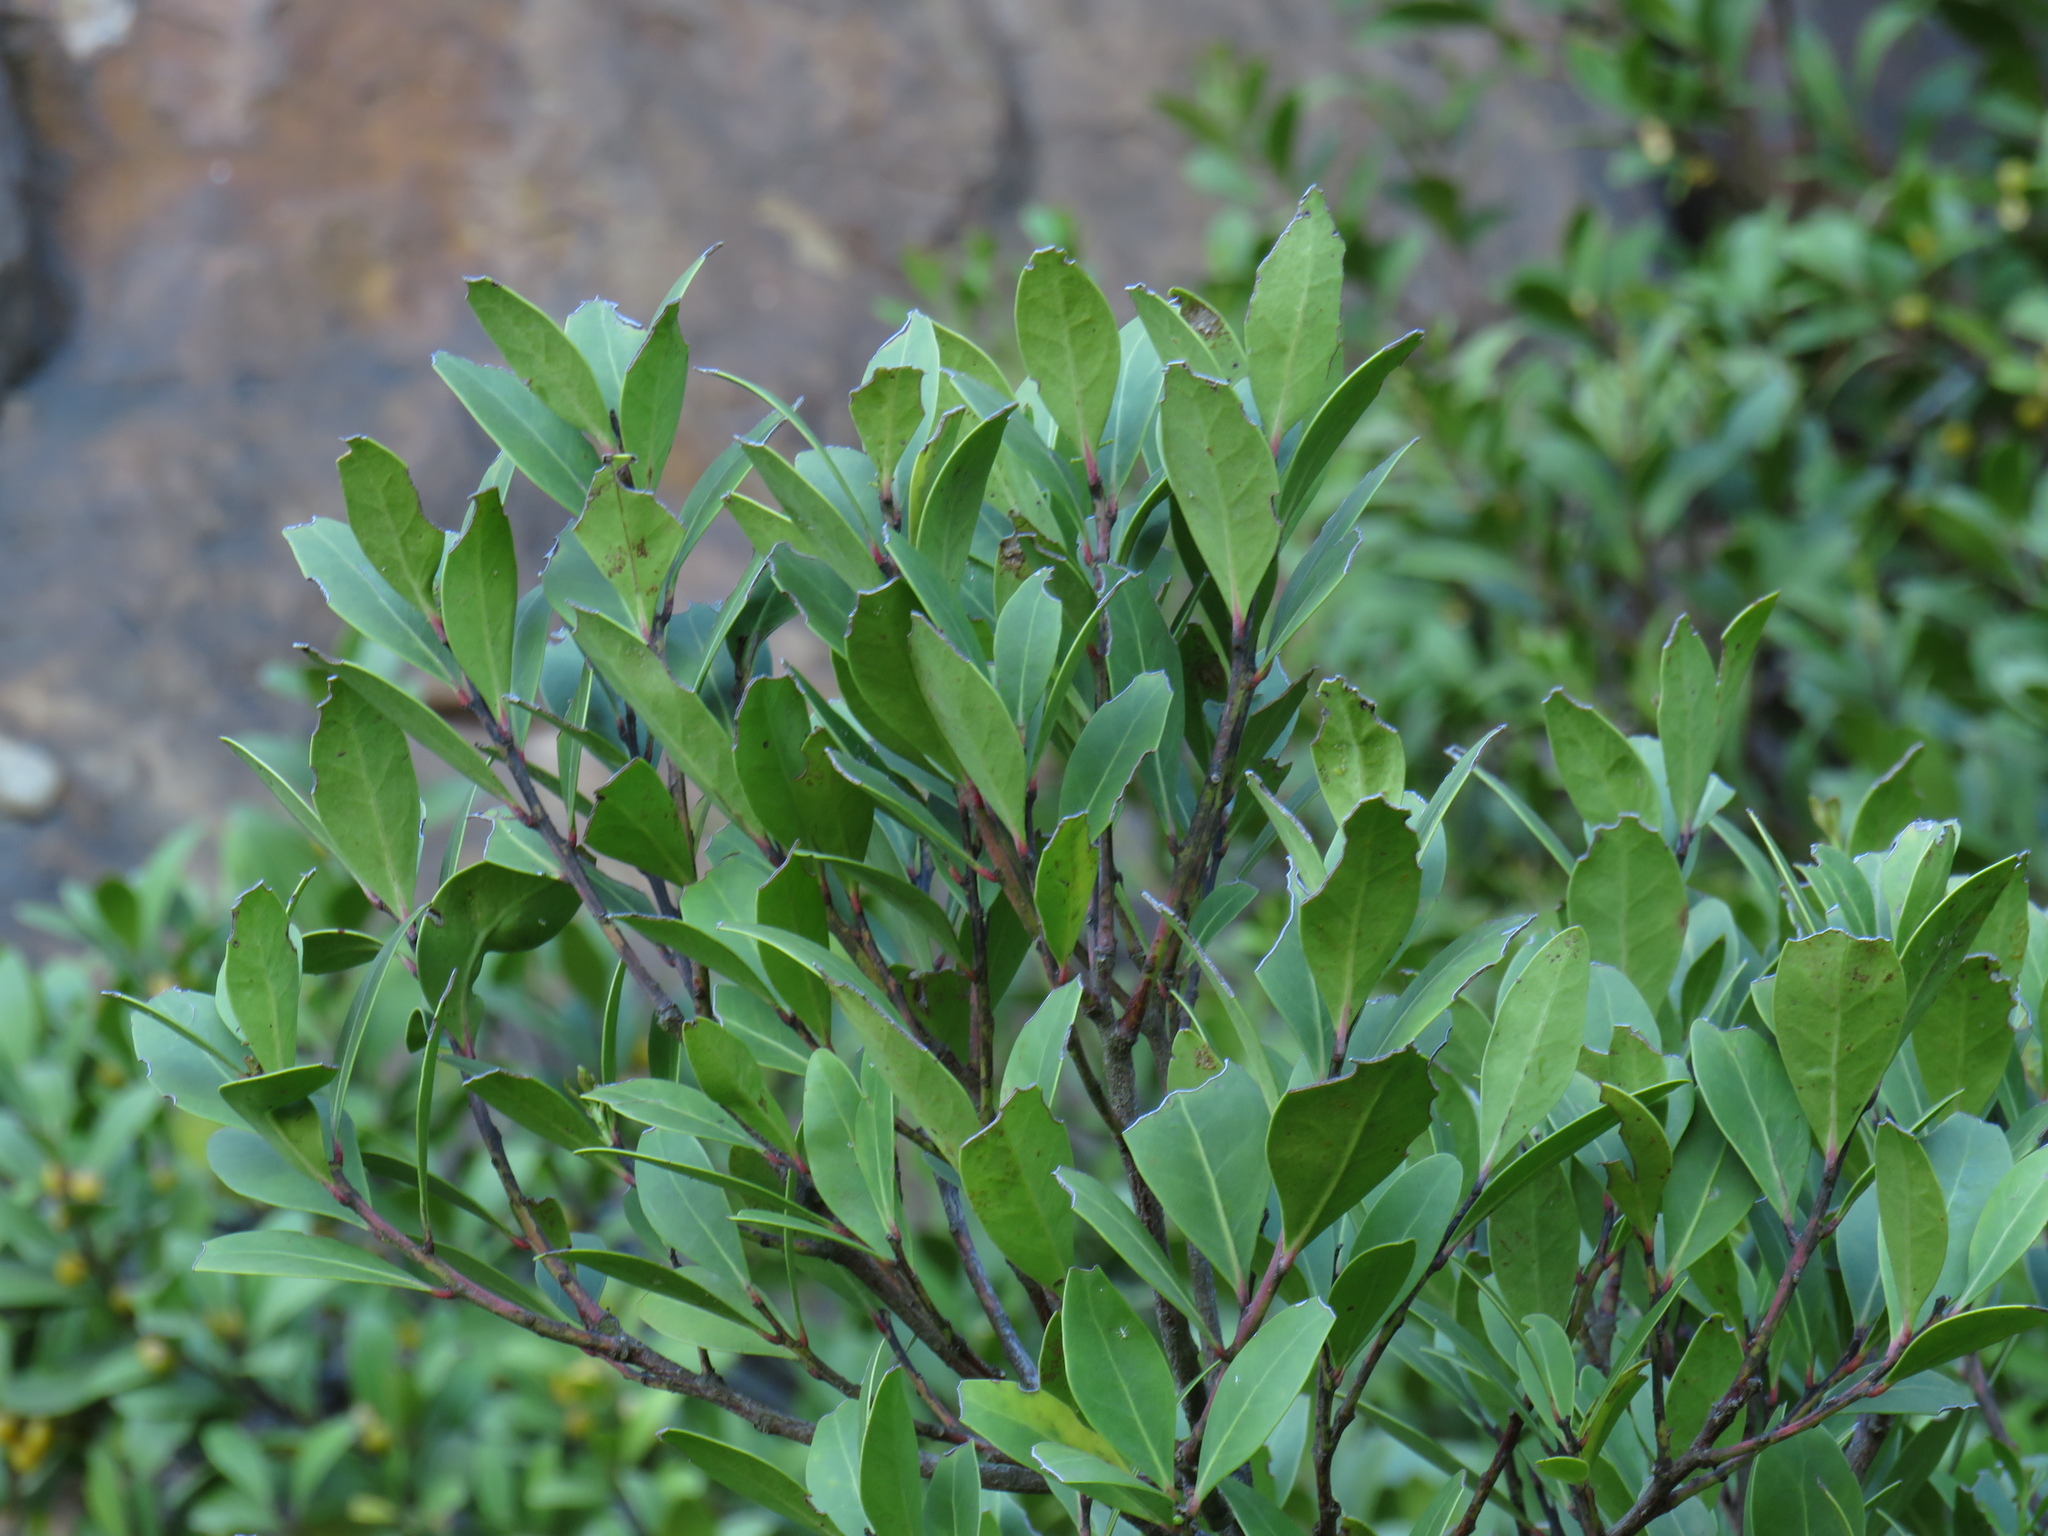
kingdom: Plantae
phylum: Tracheophyta
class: Magnoliopsida
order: Celastrales
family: Celastraceae
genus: Gymnosporia
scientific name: Gymnosporia laurina
